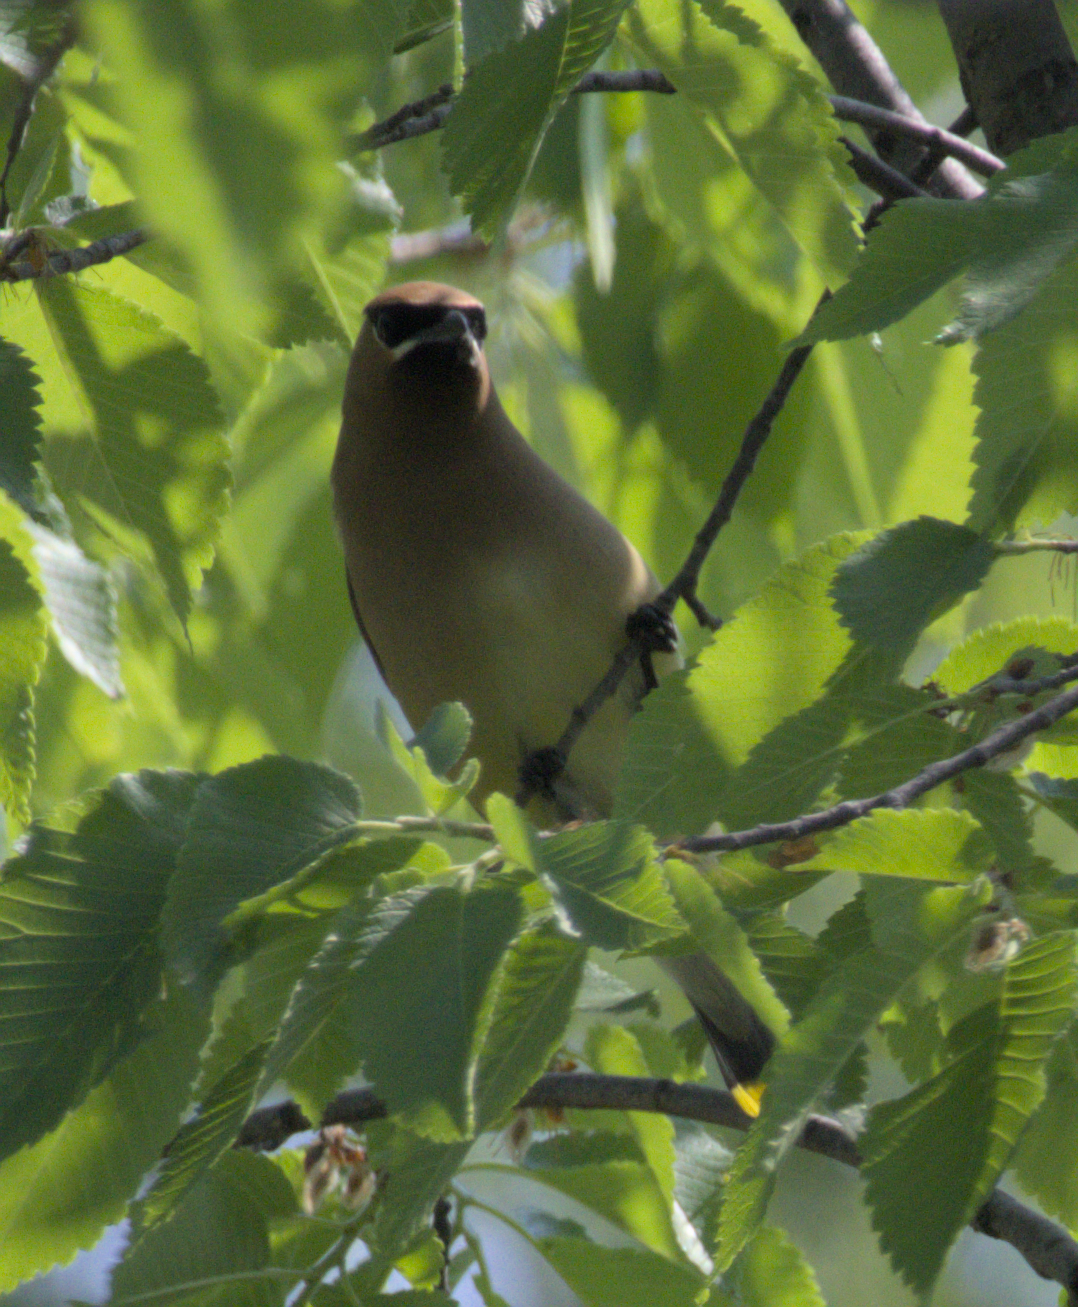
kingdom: Animalia
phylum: Chordata
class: Aves
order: Passeriformes
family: Bombycillidae
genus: Bombycilla
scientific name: Bombycilla cedrorum
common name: Cedar waxwing
